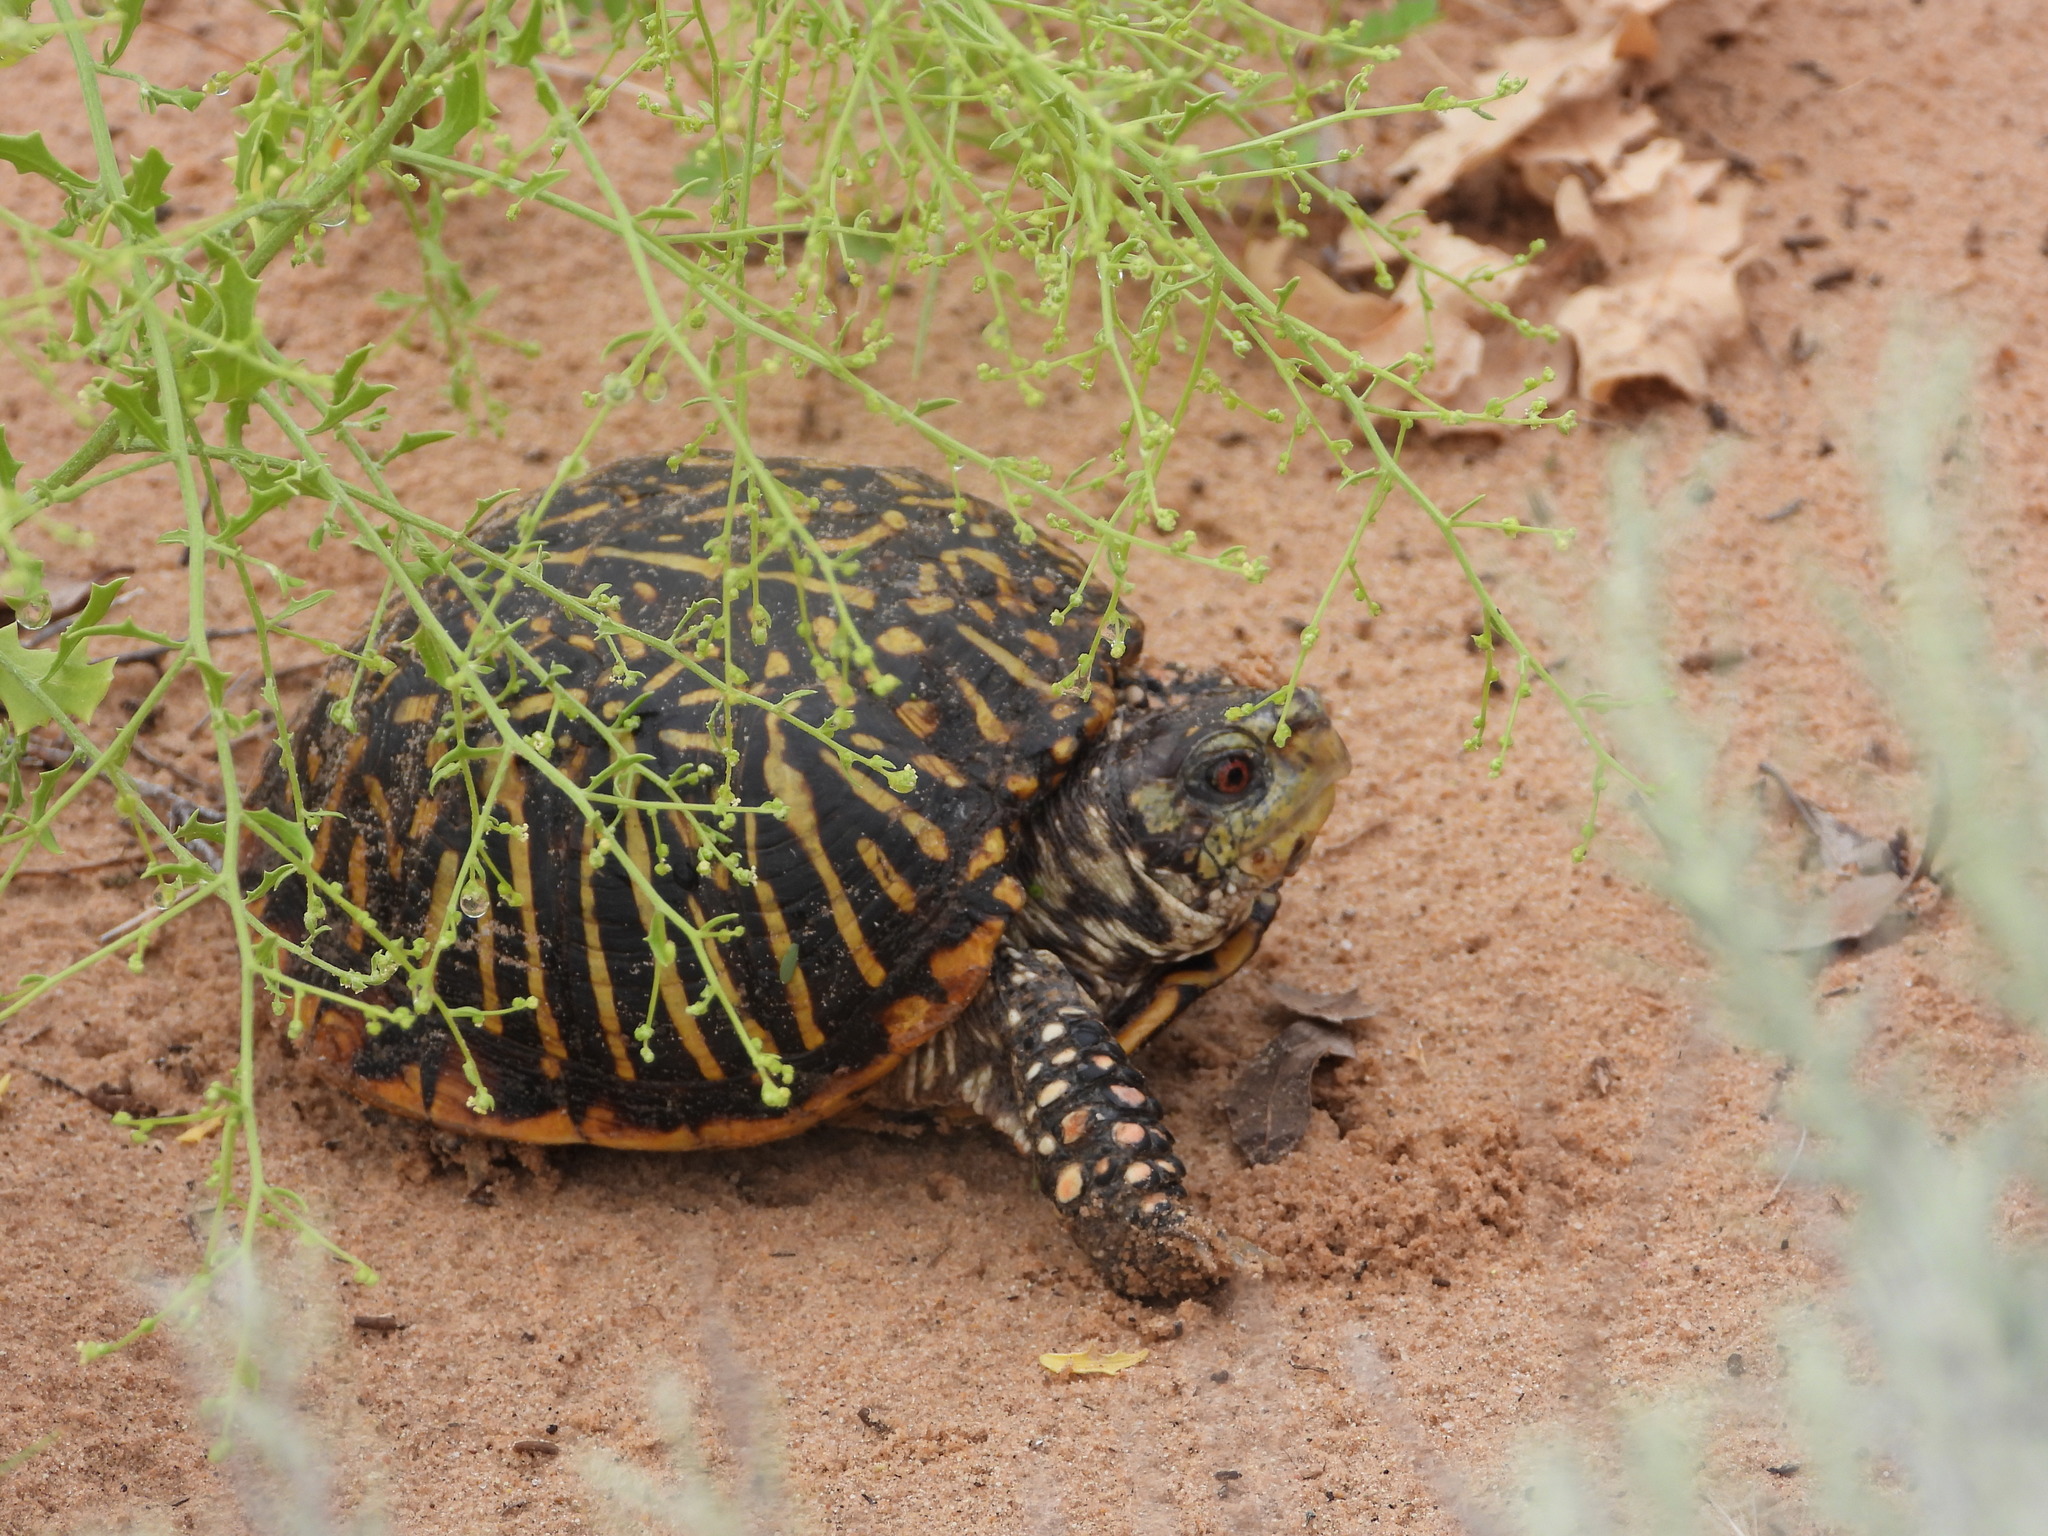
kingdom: Animalia
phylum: Chordata
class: Testudines
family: Emydidae
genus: Terrapene
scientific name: Terrapene ornata
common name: Western box turtle
